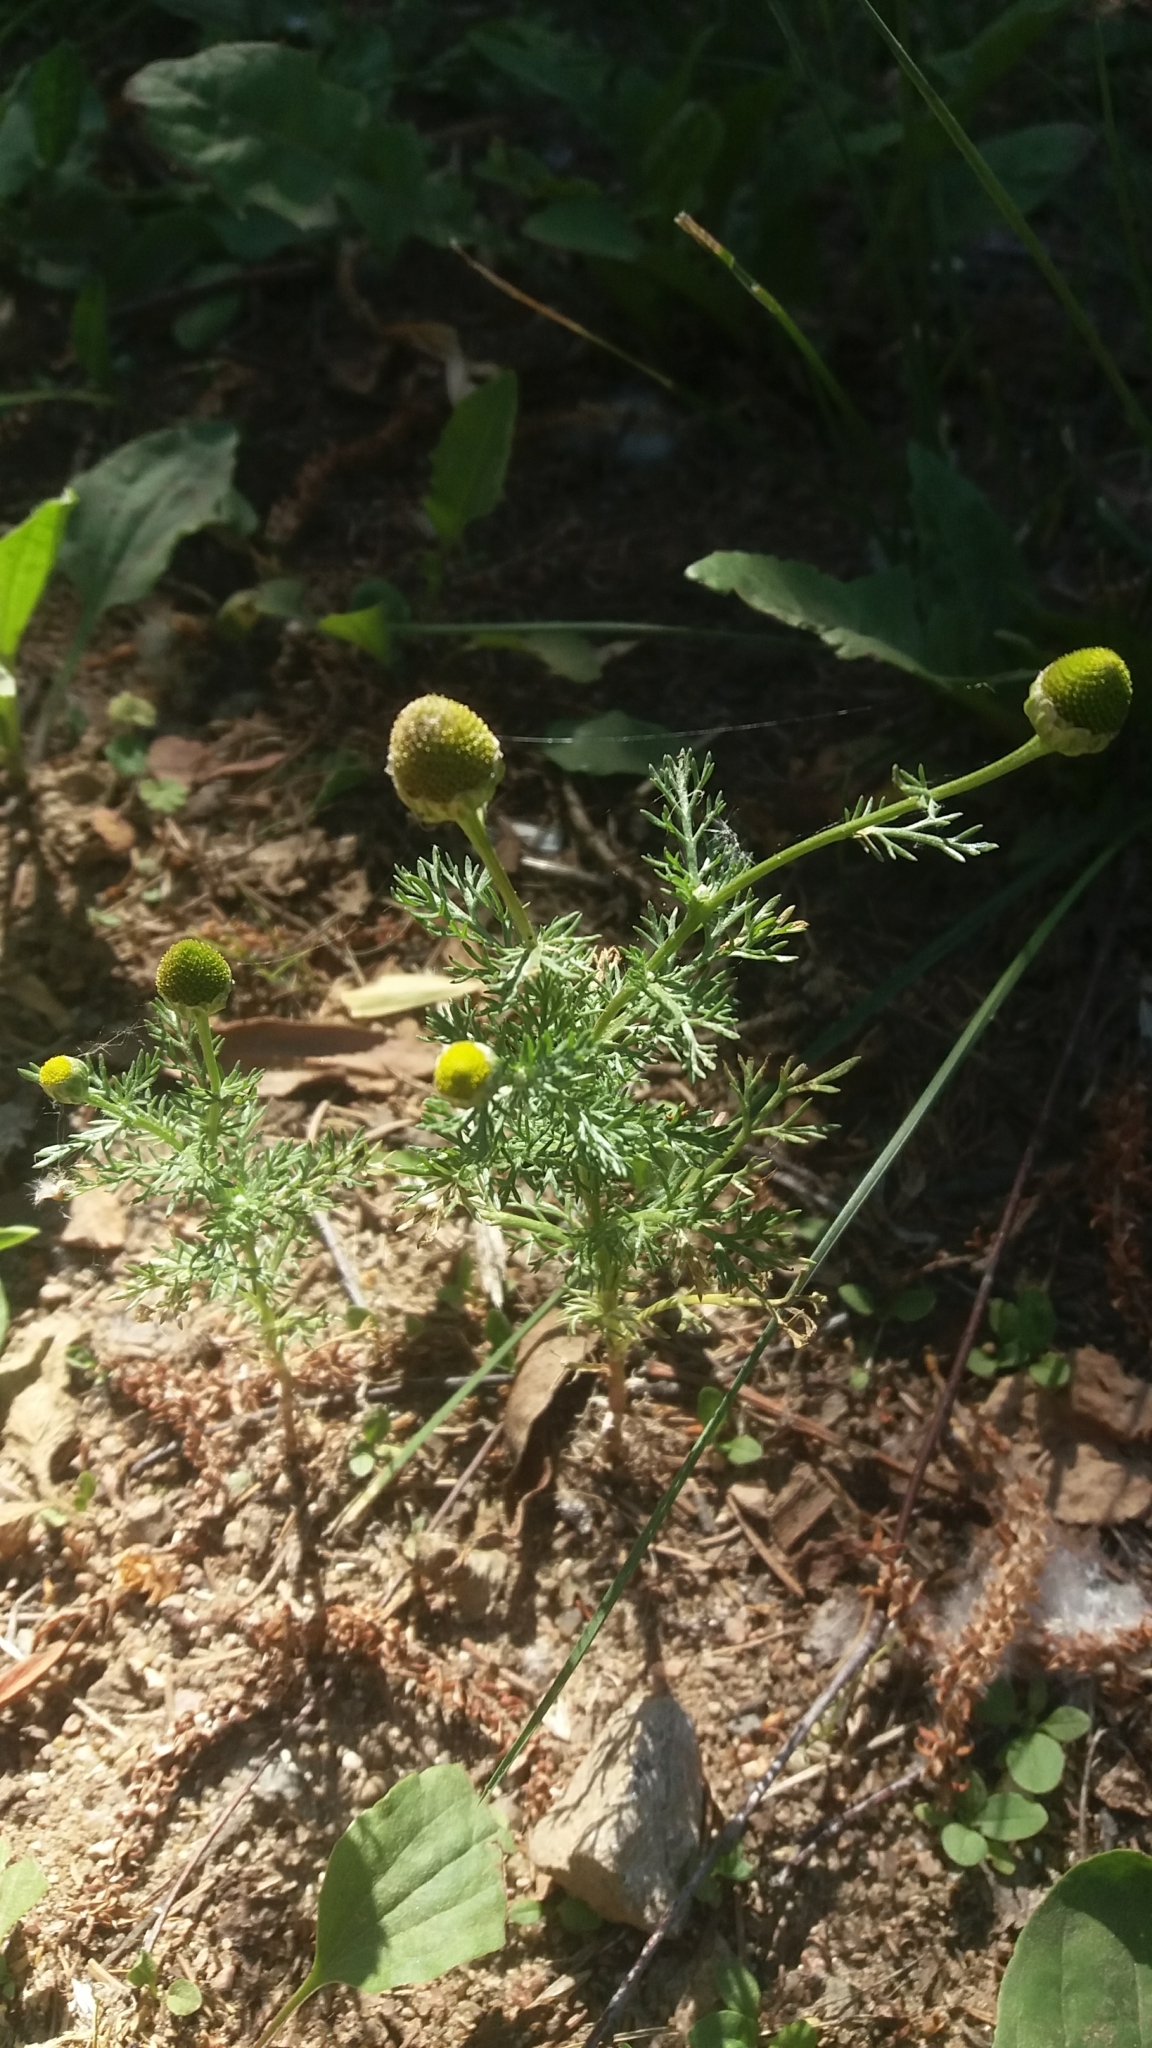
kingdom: Plantae
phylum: Tracheophyta
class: Magnoliopsida
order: Asterales
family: Asteraceae
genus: Matricaria
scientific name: Matricaria discoidea
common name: Disc mayweed
